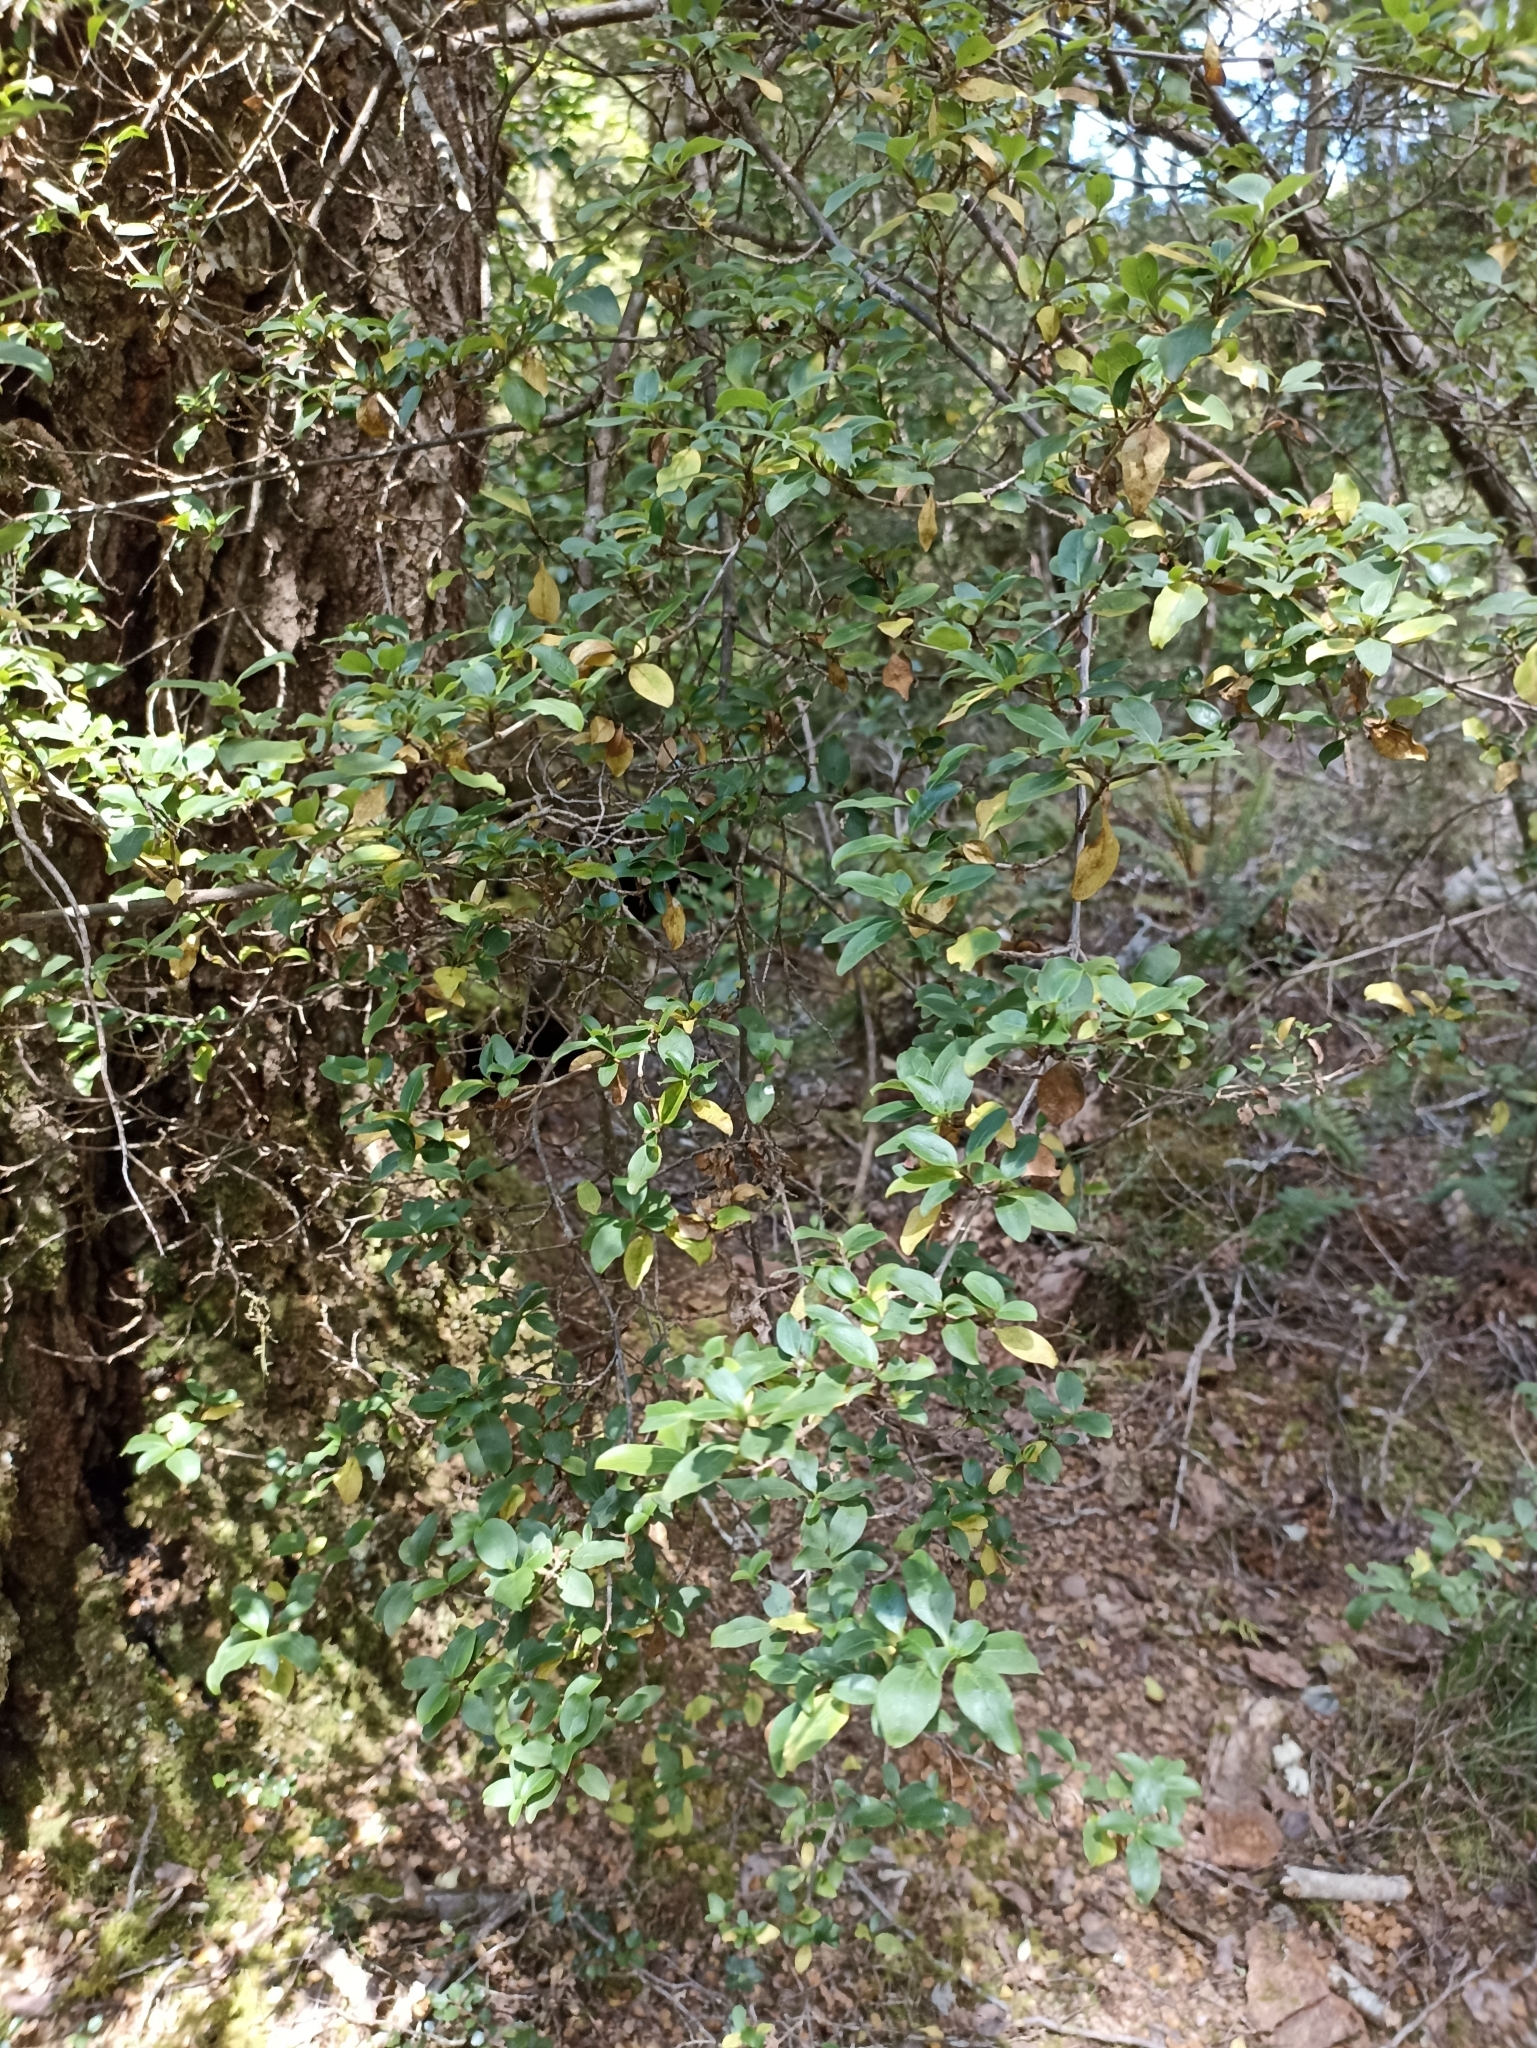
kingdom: Plantae
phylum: Tracheophyta
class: Magnoliopsida
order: Gentianales
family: Rubiaceae
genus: Coprosma
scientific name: Coprosma foetidissima
